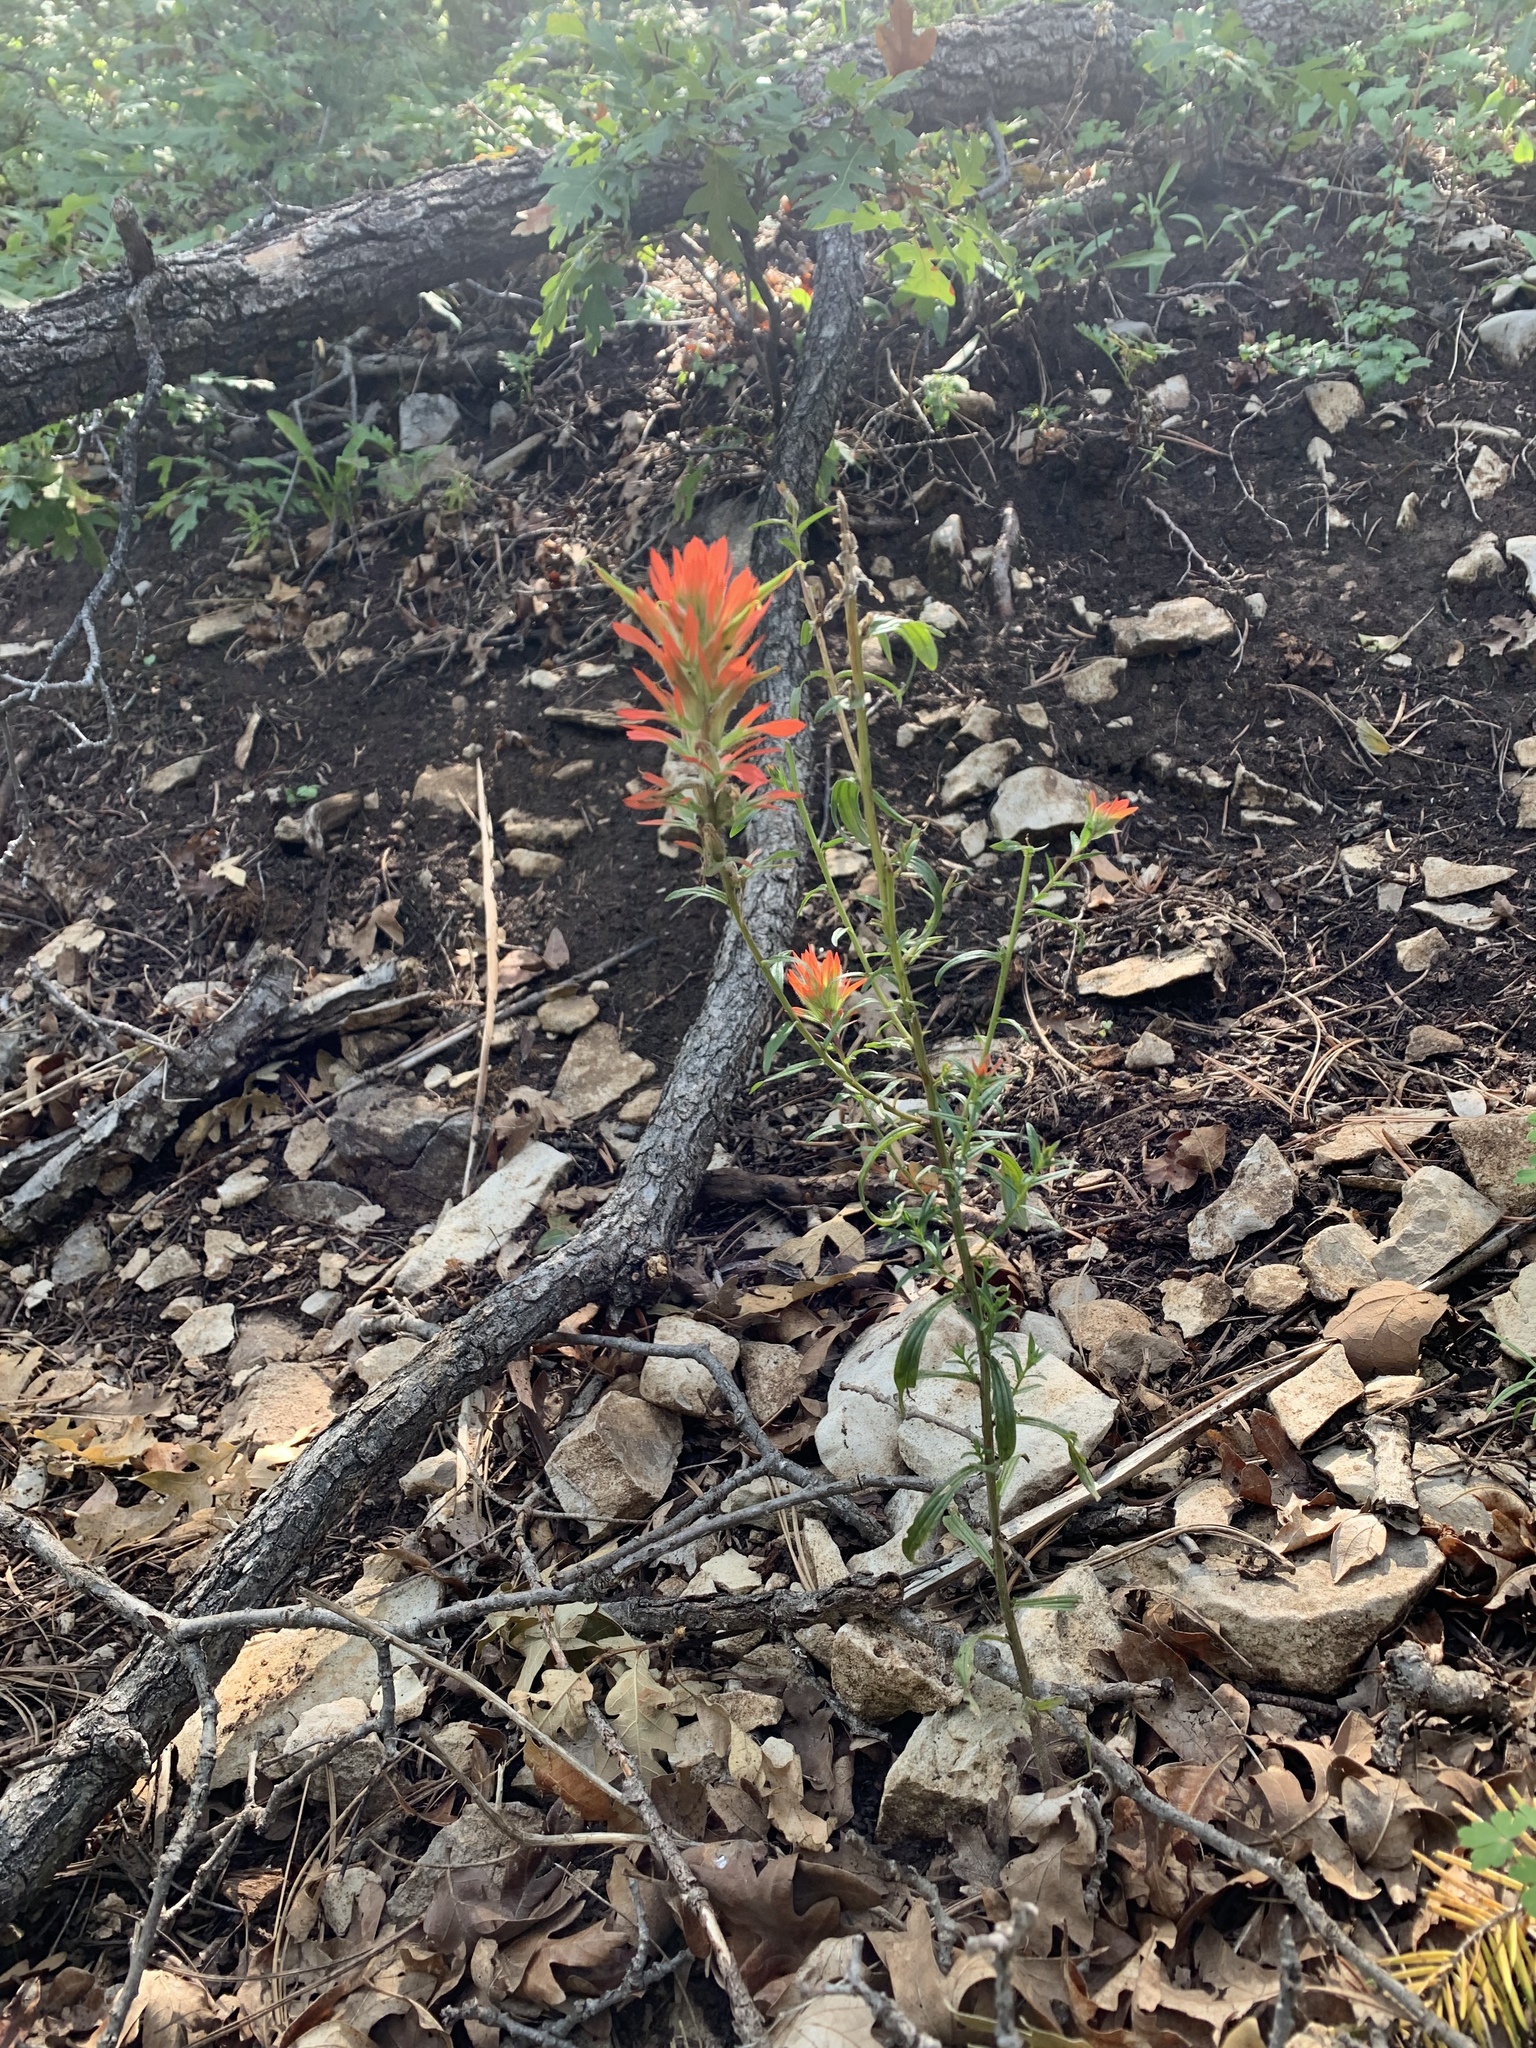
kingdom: Plantae
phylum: Tracheophyta
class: Magnoliopsida
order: Lamiales
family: Orobanchaceae
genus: Castilleja
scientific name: Castilleja wootonii
